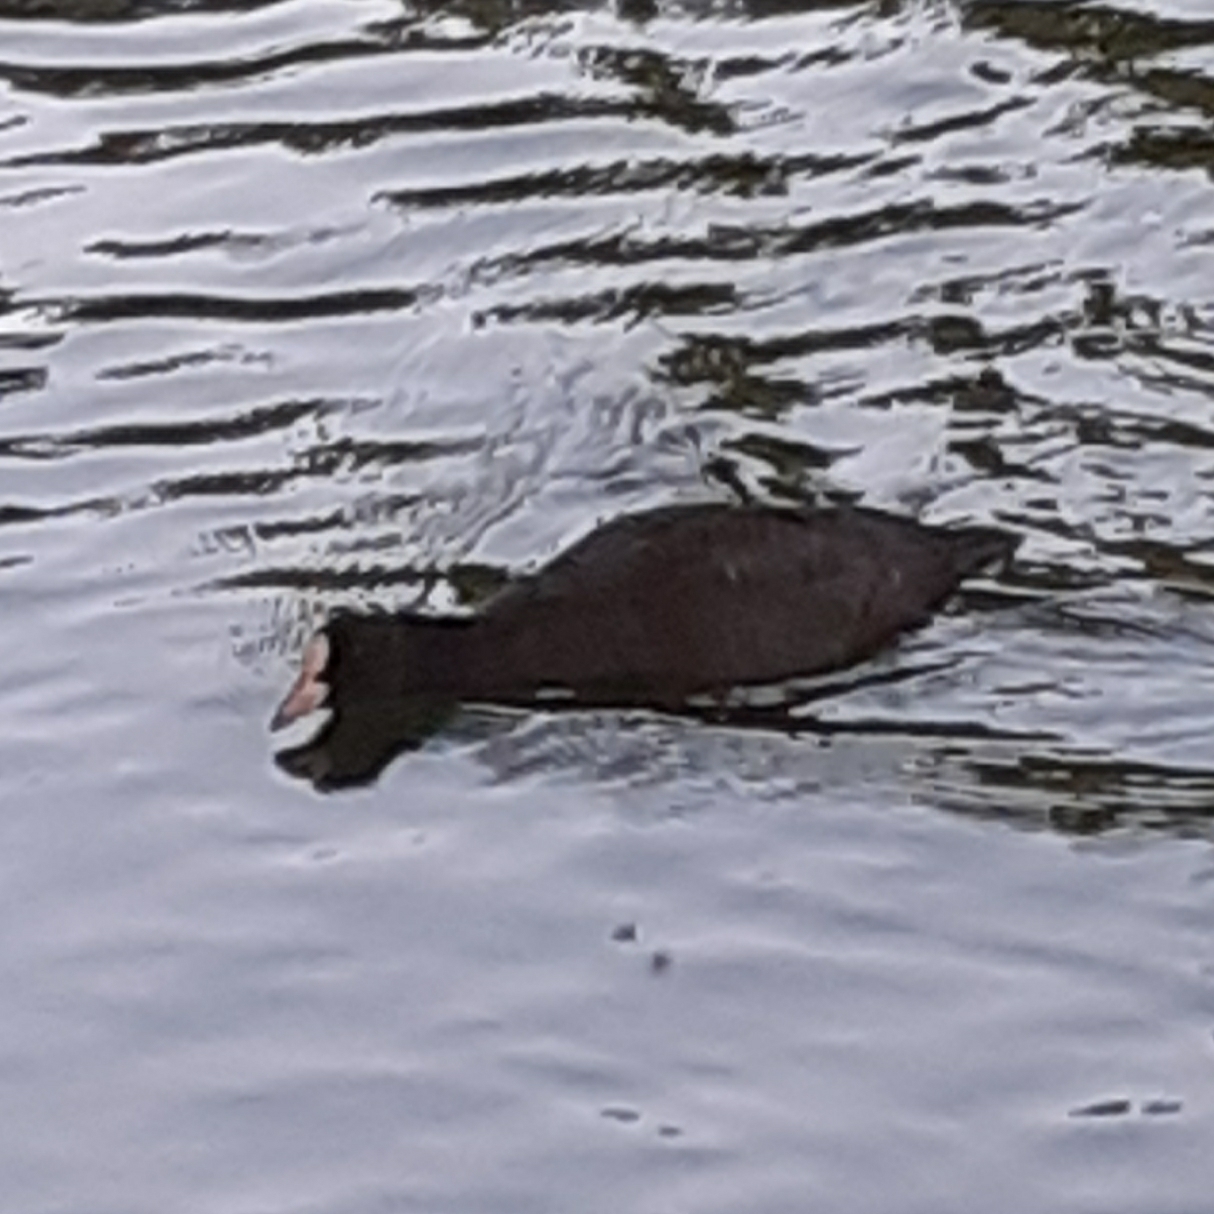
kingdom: Animalia
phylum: Chordata
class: Aves
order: Gruiformes
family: Rallidae
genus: Fulica
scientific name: Fulica atra
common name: Eurasian coot
